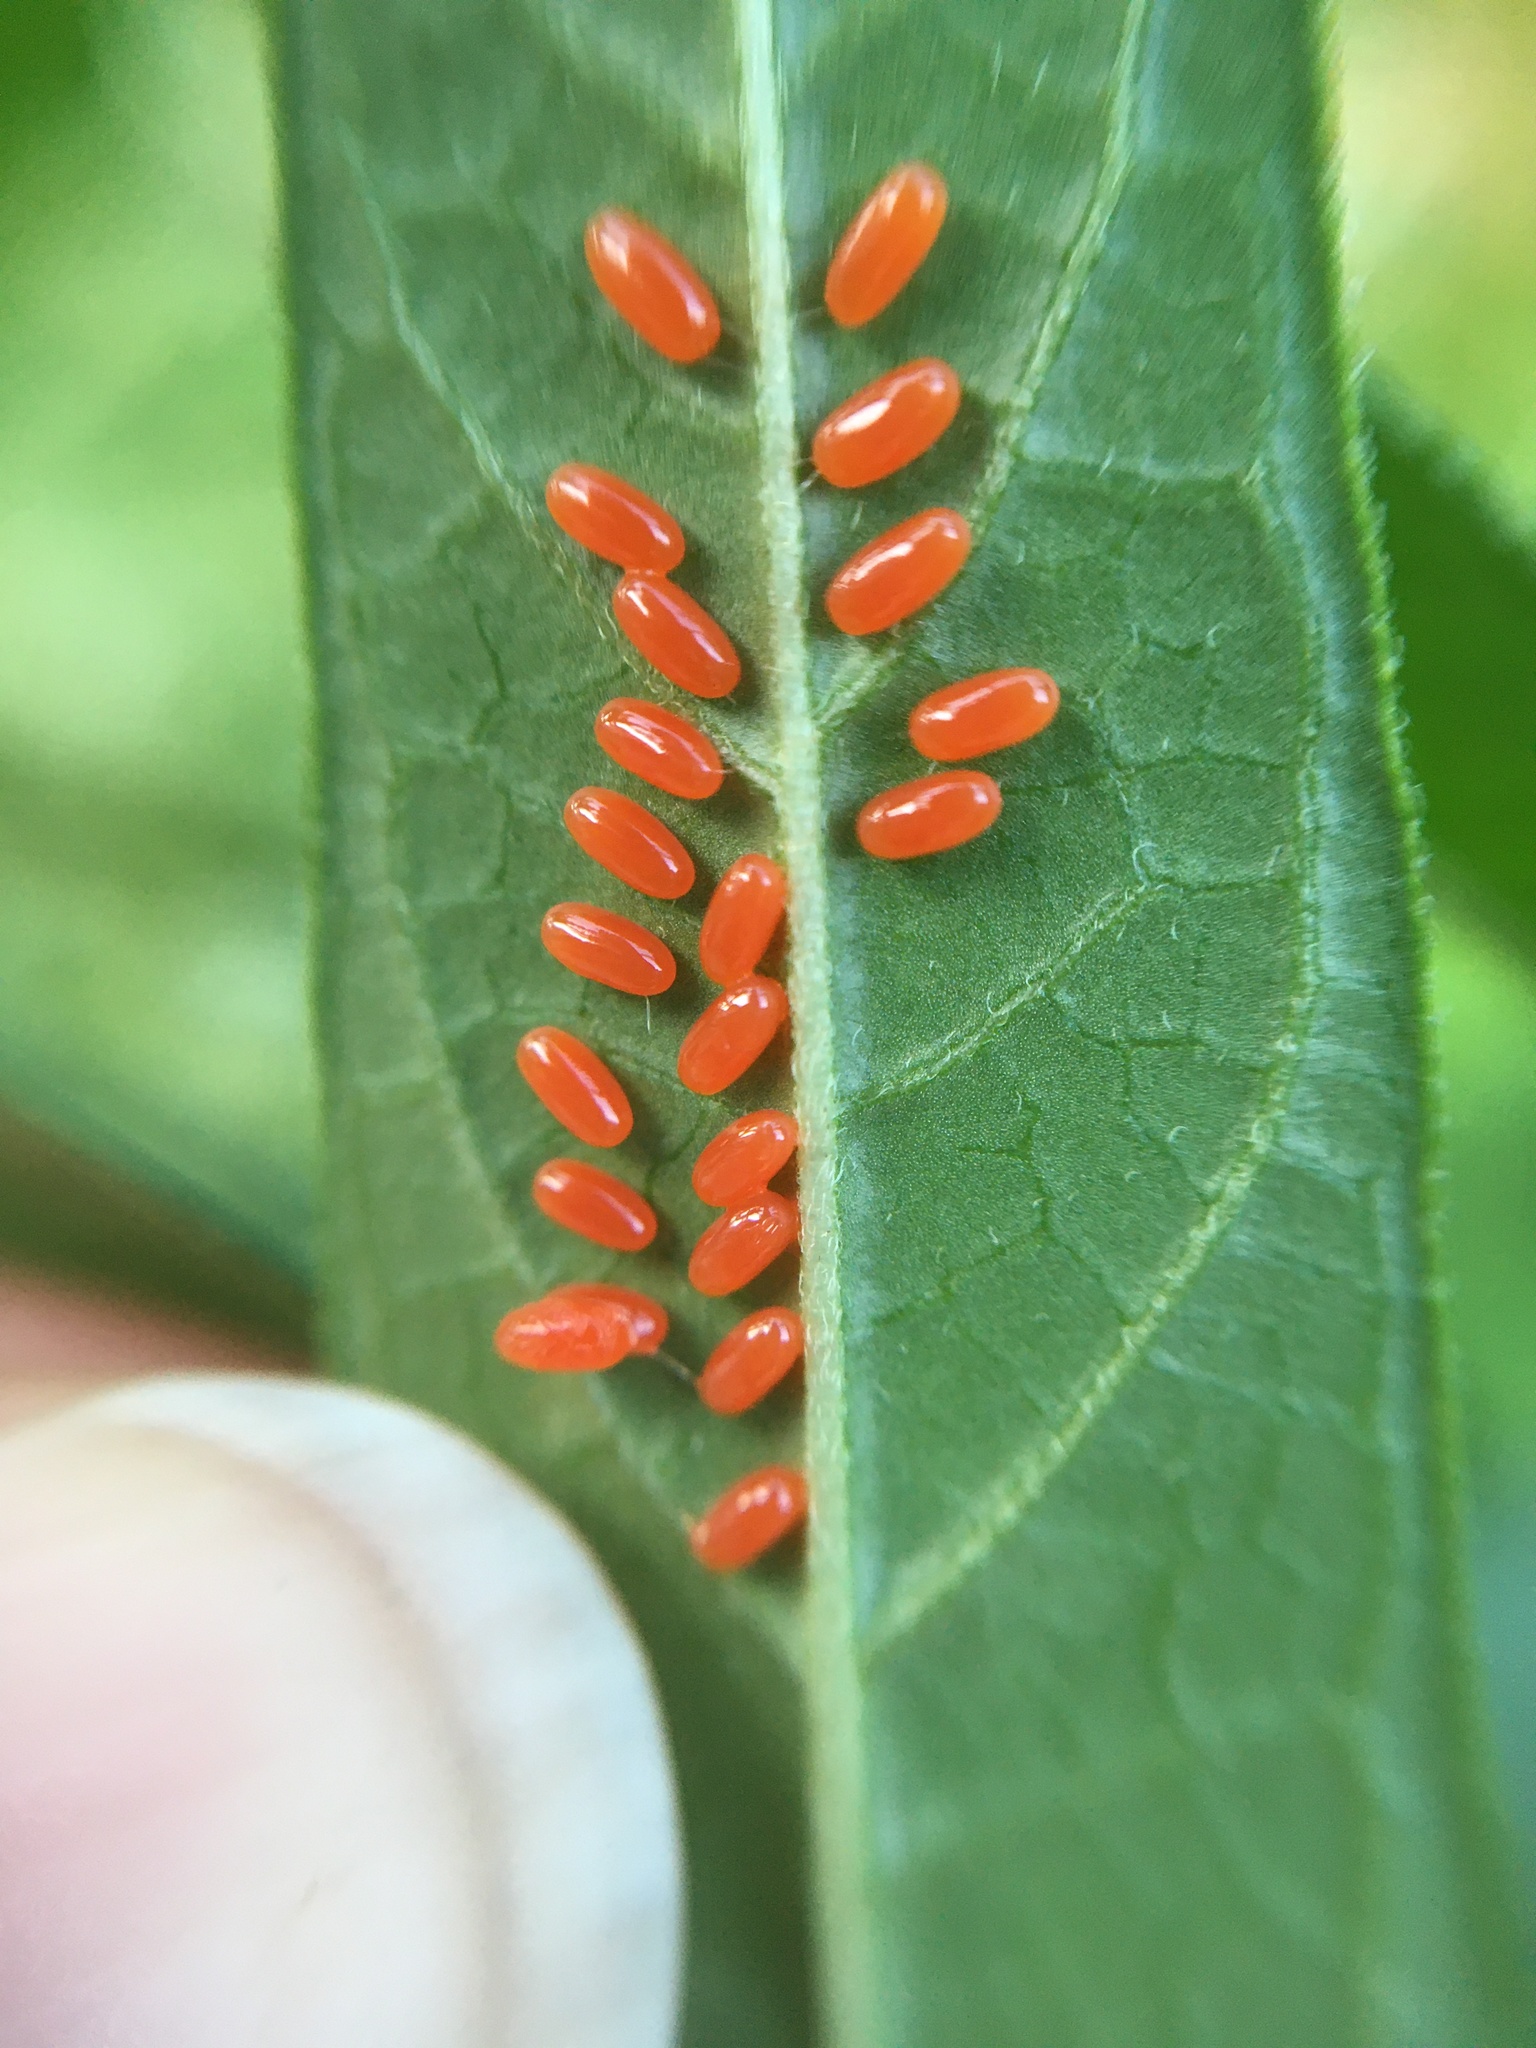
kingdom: Animalia
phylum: Arthropoda
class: Insecta
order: Coleoptera
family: Chrysomelidae
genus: Labidomera
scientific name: Labidomera clivicollis
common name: Swamp milkweed leaf beetle
